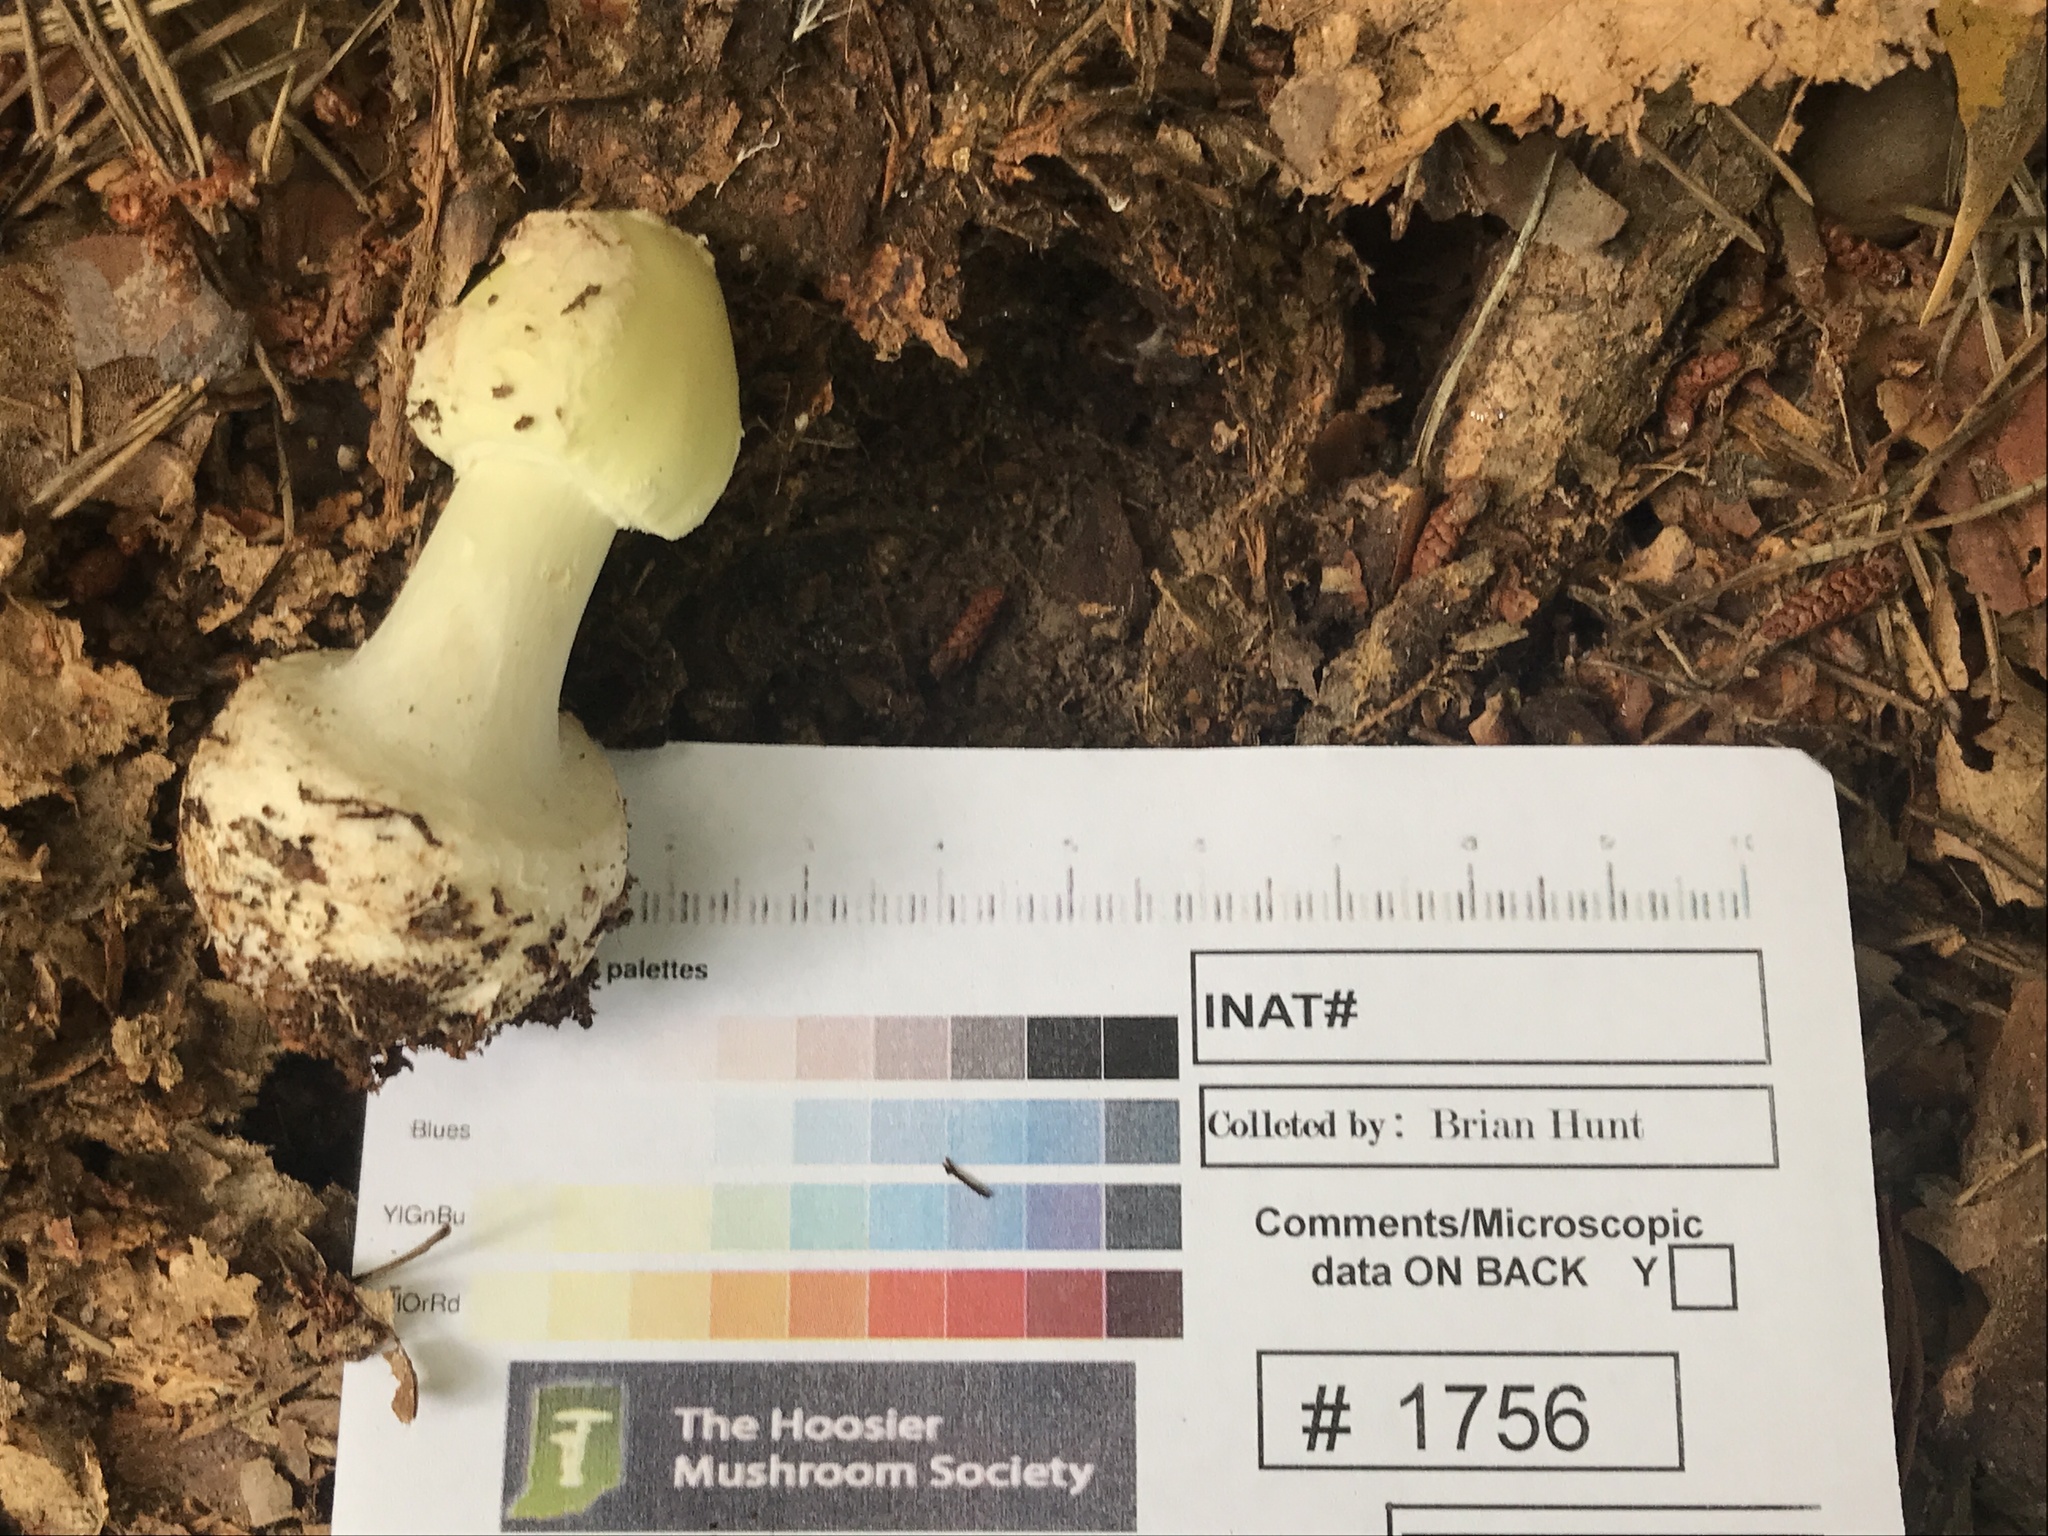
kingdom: Fungi
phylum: Basidiomycota
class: Agaricomycetes
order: Agaricales
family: Amanitaceae
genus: Amanita
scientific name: Amanita lavendula
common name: Coker's lavender staining amanita
